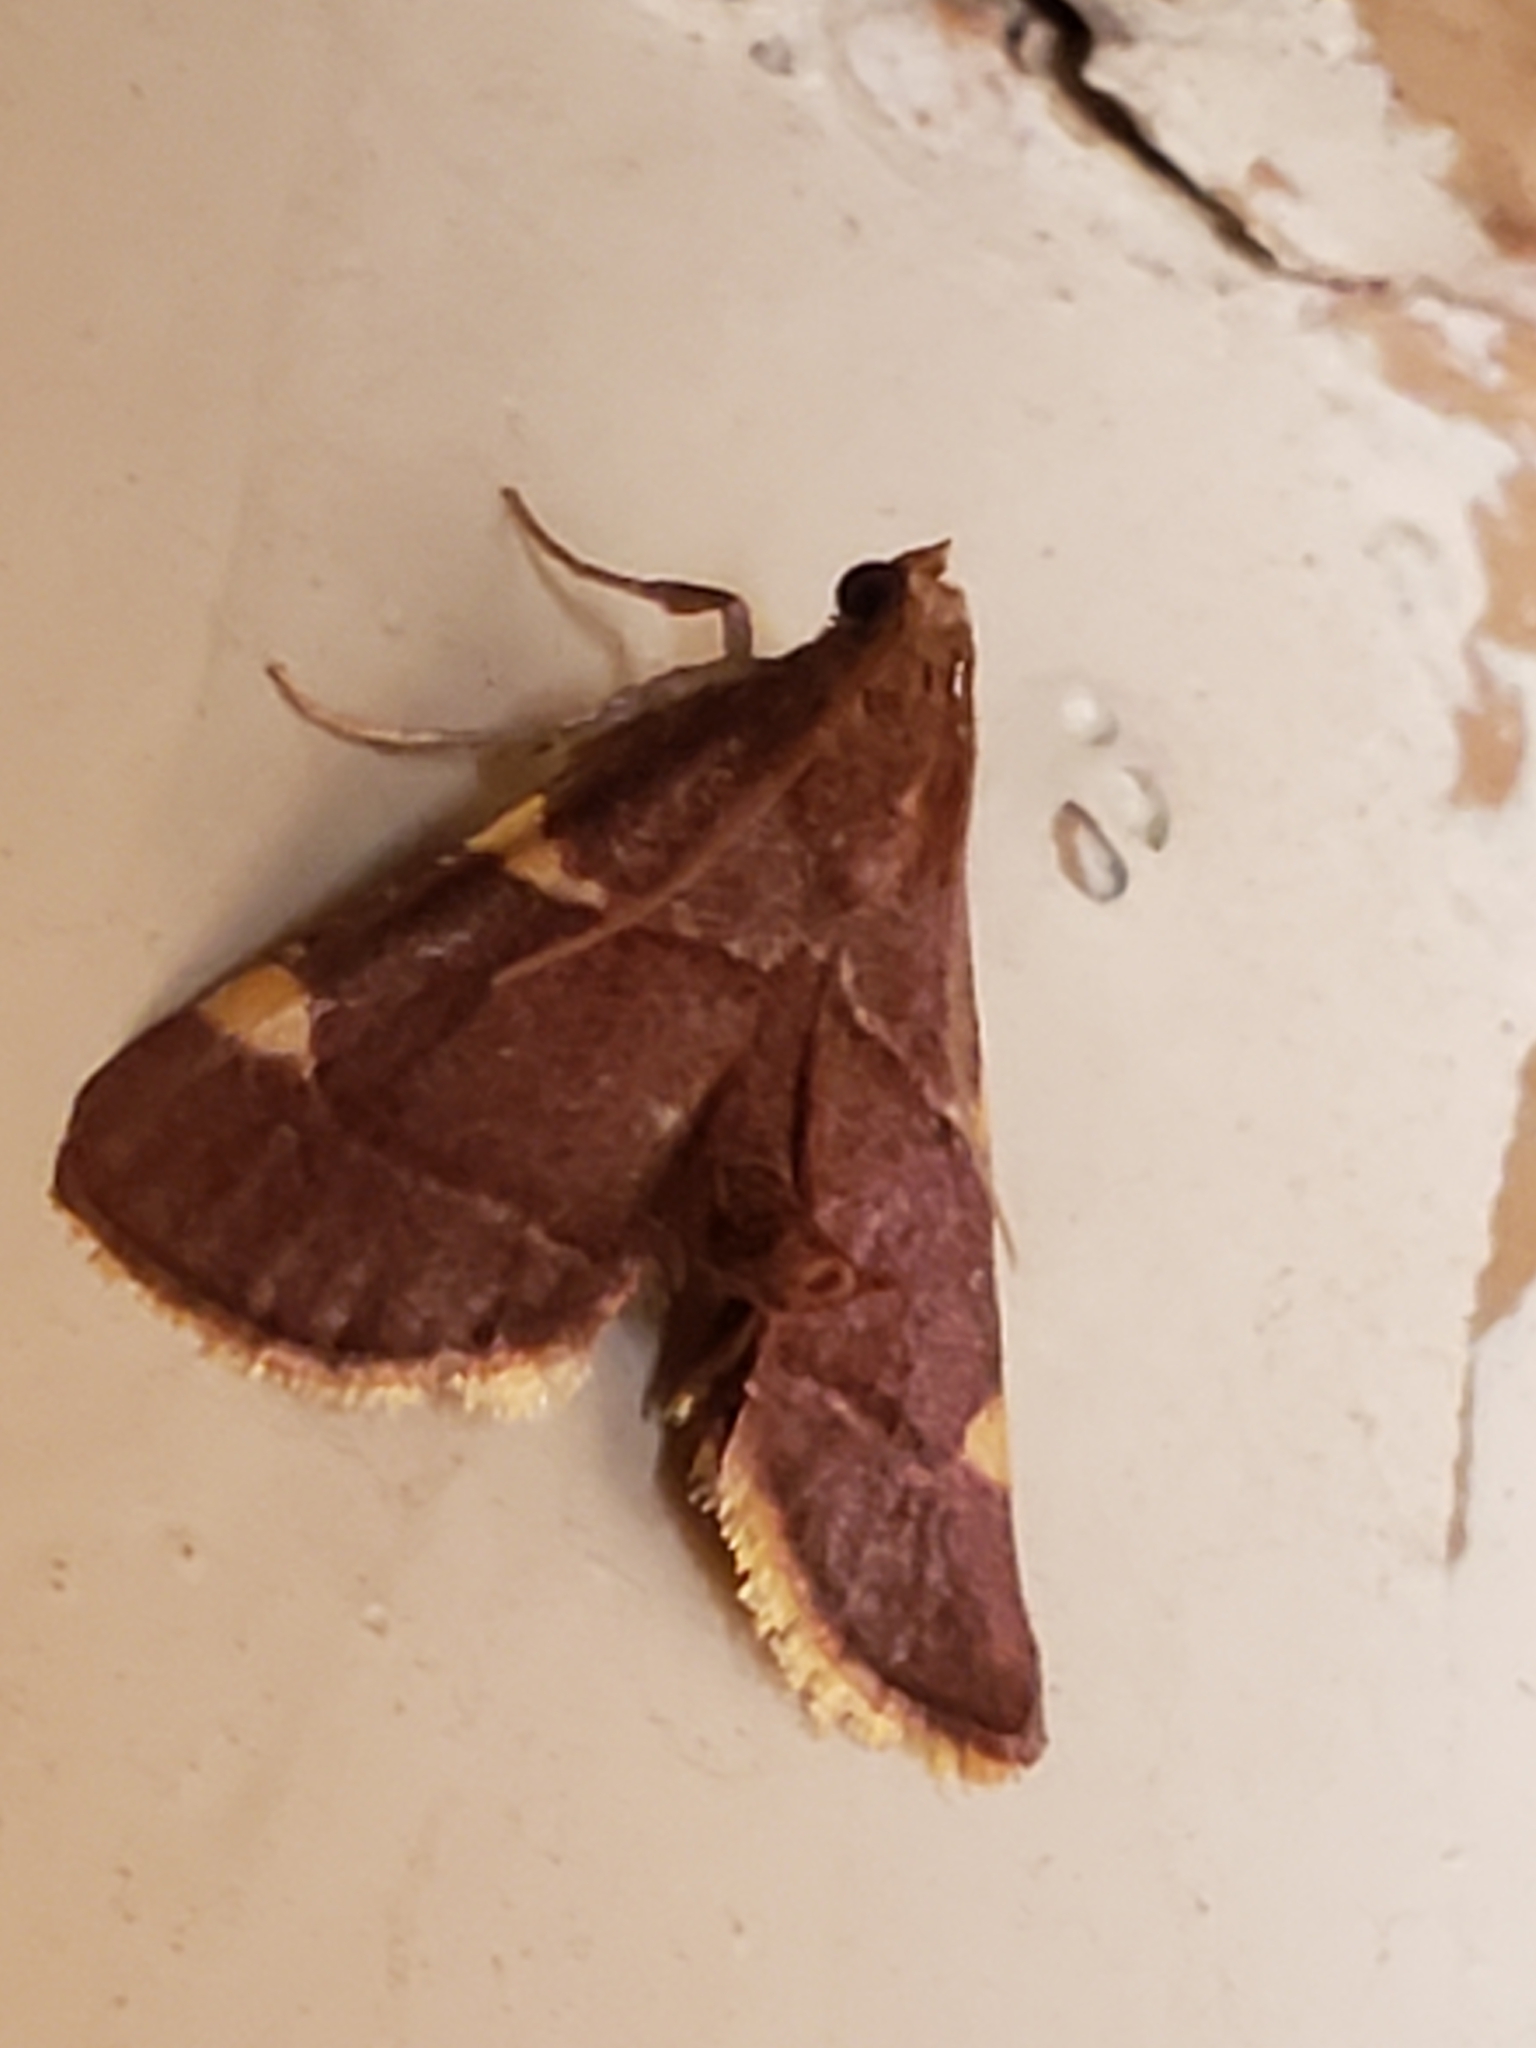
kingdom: Animalia
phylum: Arthropoda
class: Insecta
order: Lepidoptera
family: Pyralidae
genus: Hypsopygia
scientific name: Hypsopygia olinalis
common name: Yellow-fringed dolichomia moth
